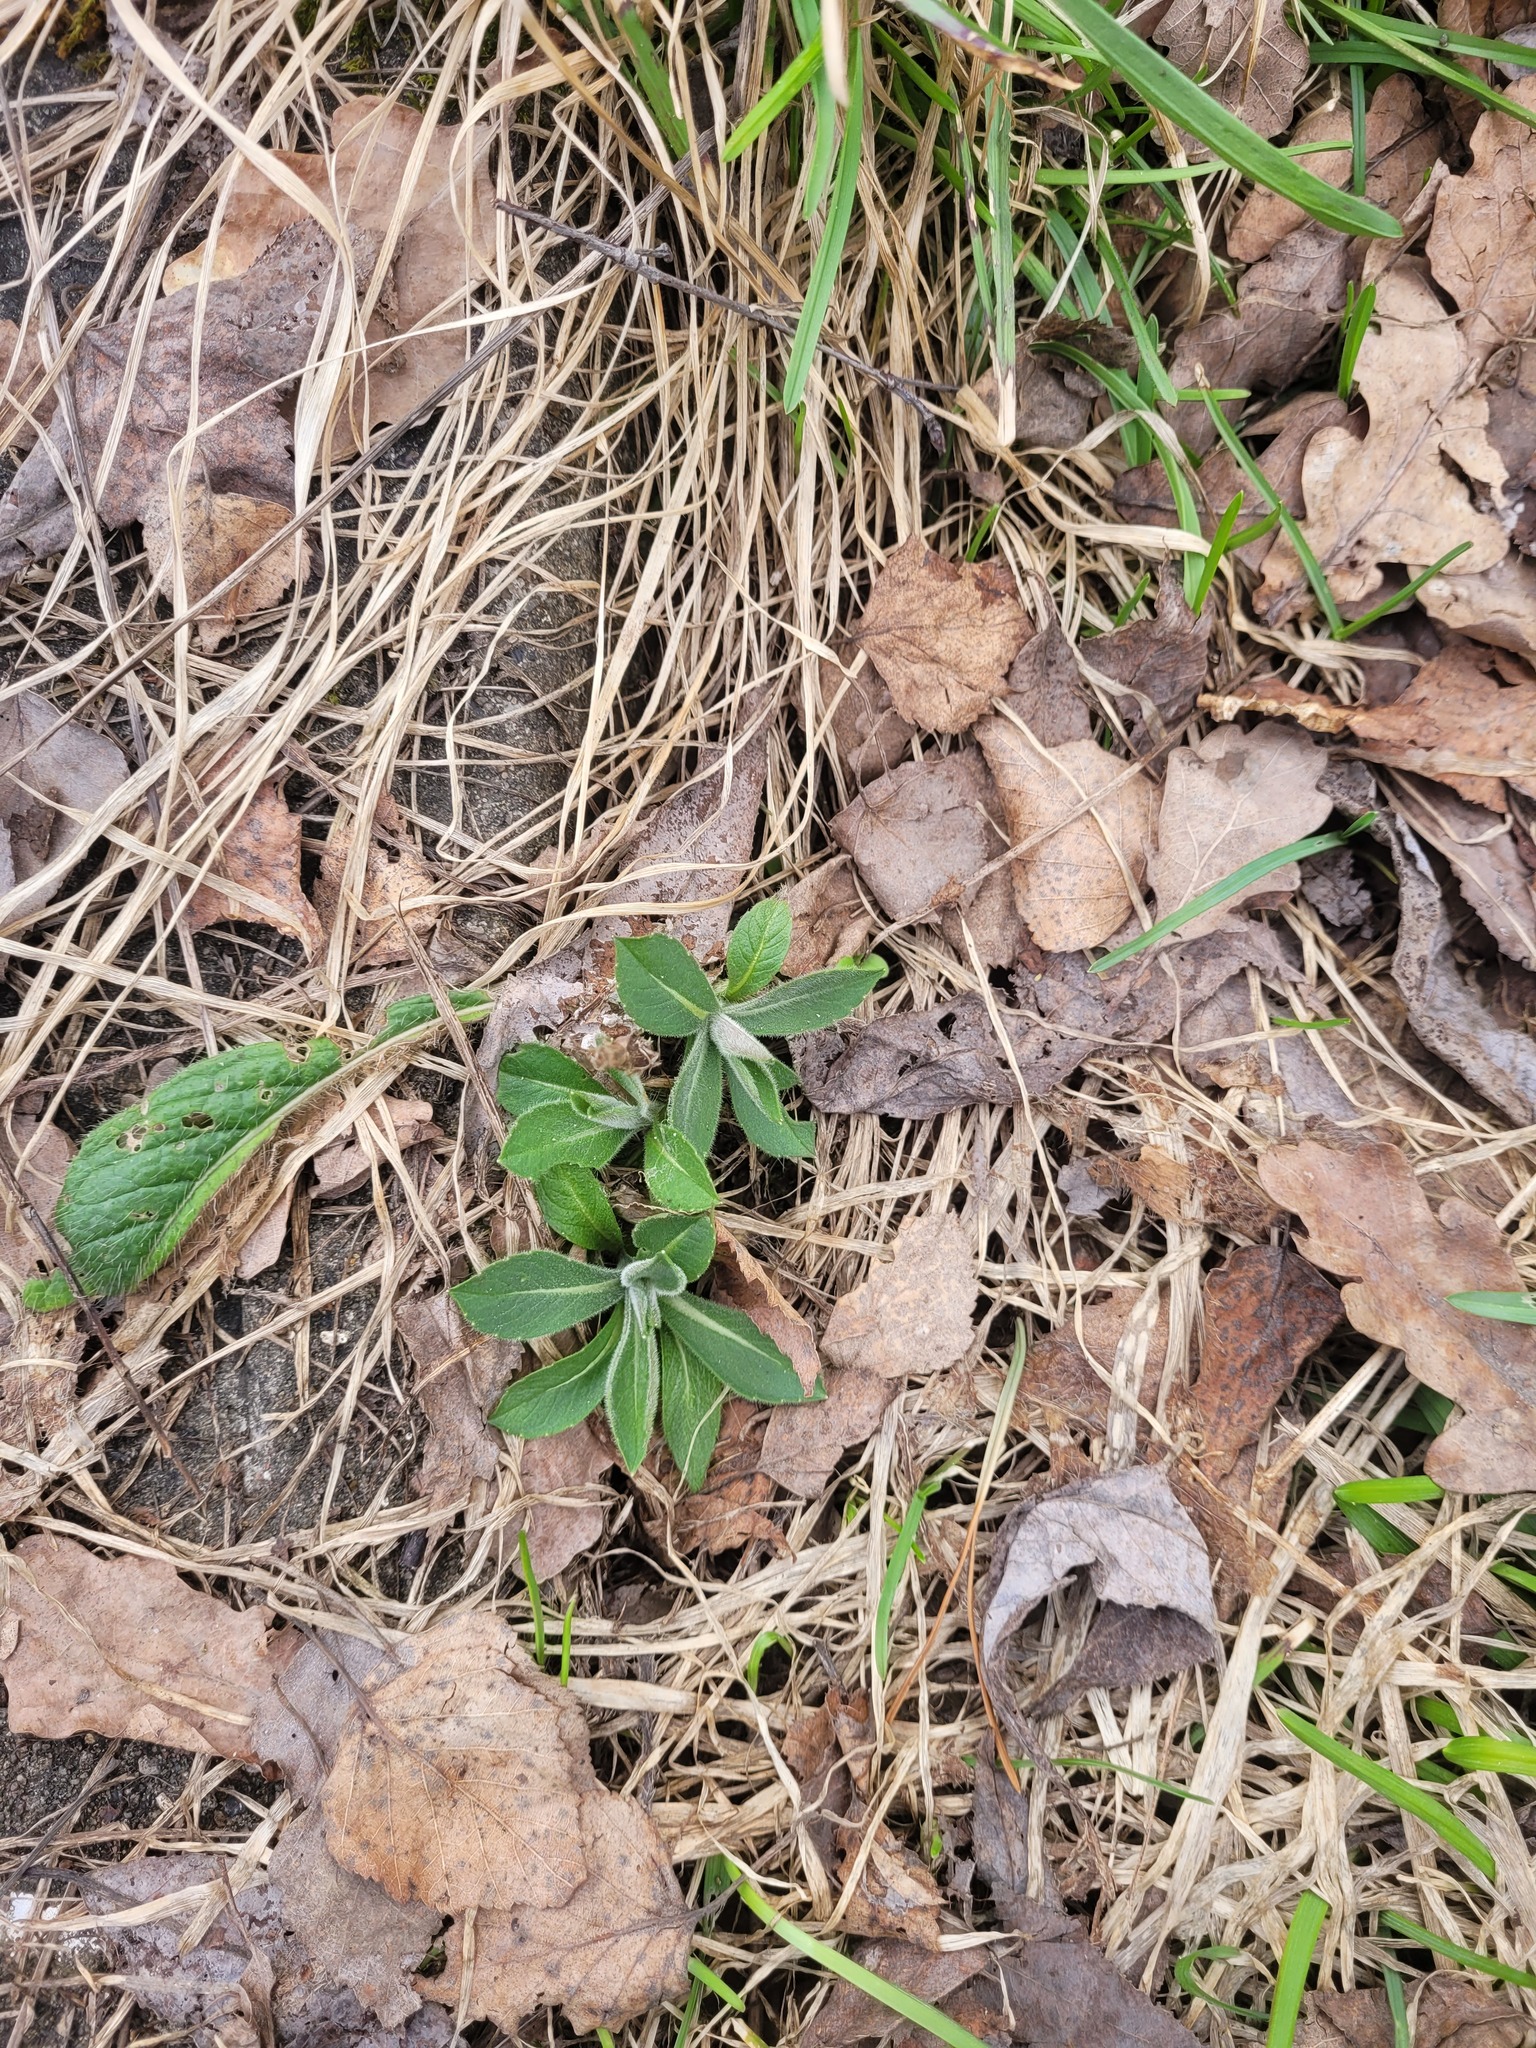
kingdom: Plantae
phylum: Tracheophyta
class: Magnoliopsida
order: Dipsacales
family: Caprifoliaceae
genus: Knautia
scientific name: Knautia arvensis
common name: Field scabiosa
